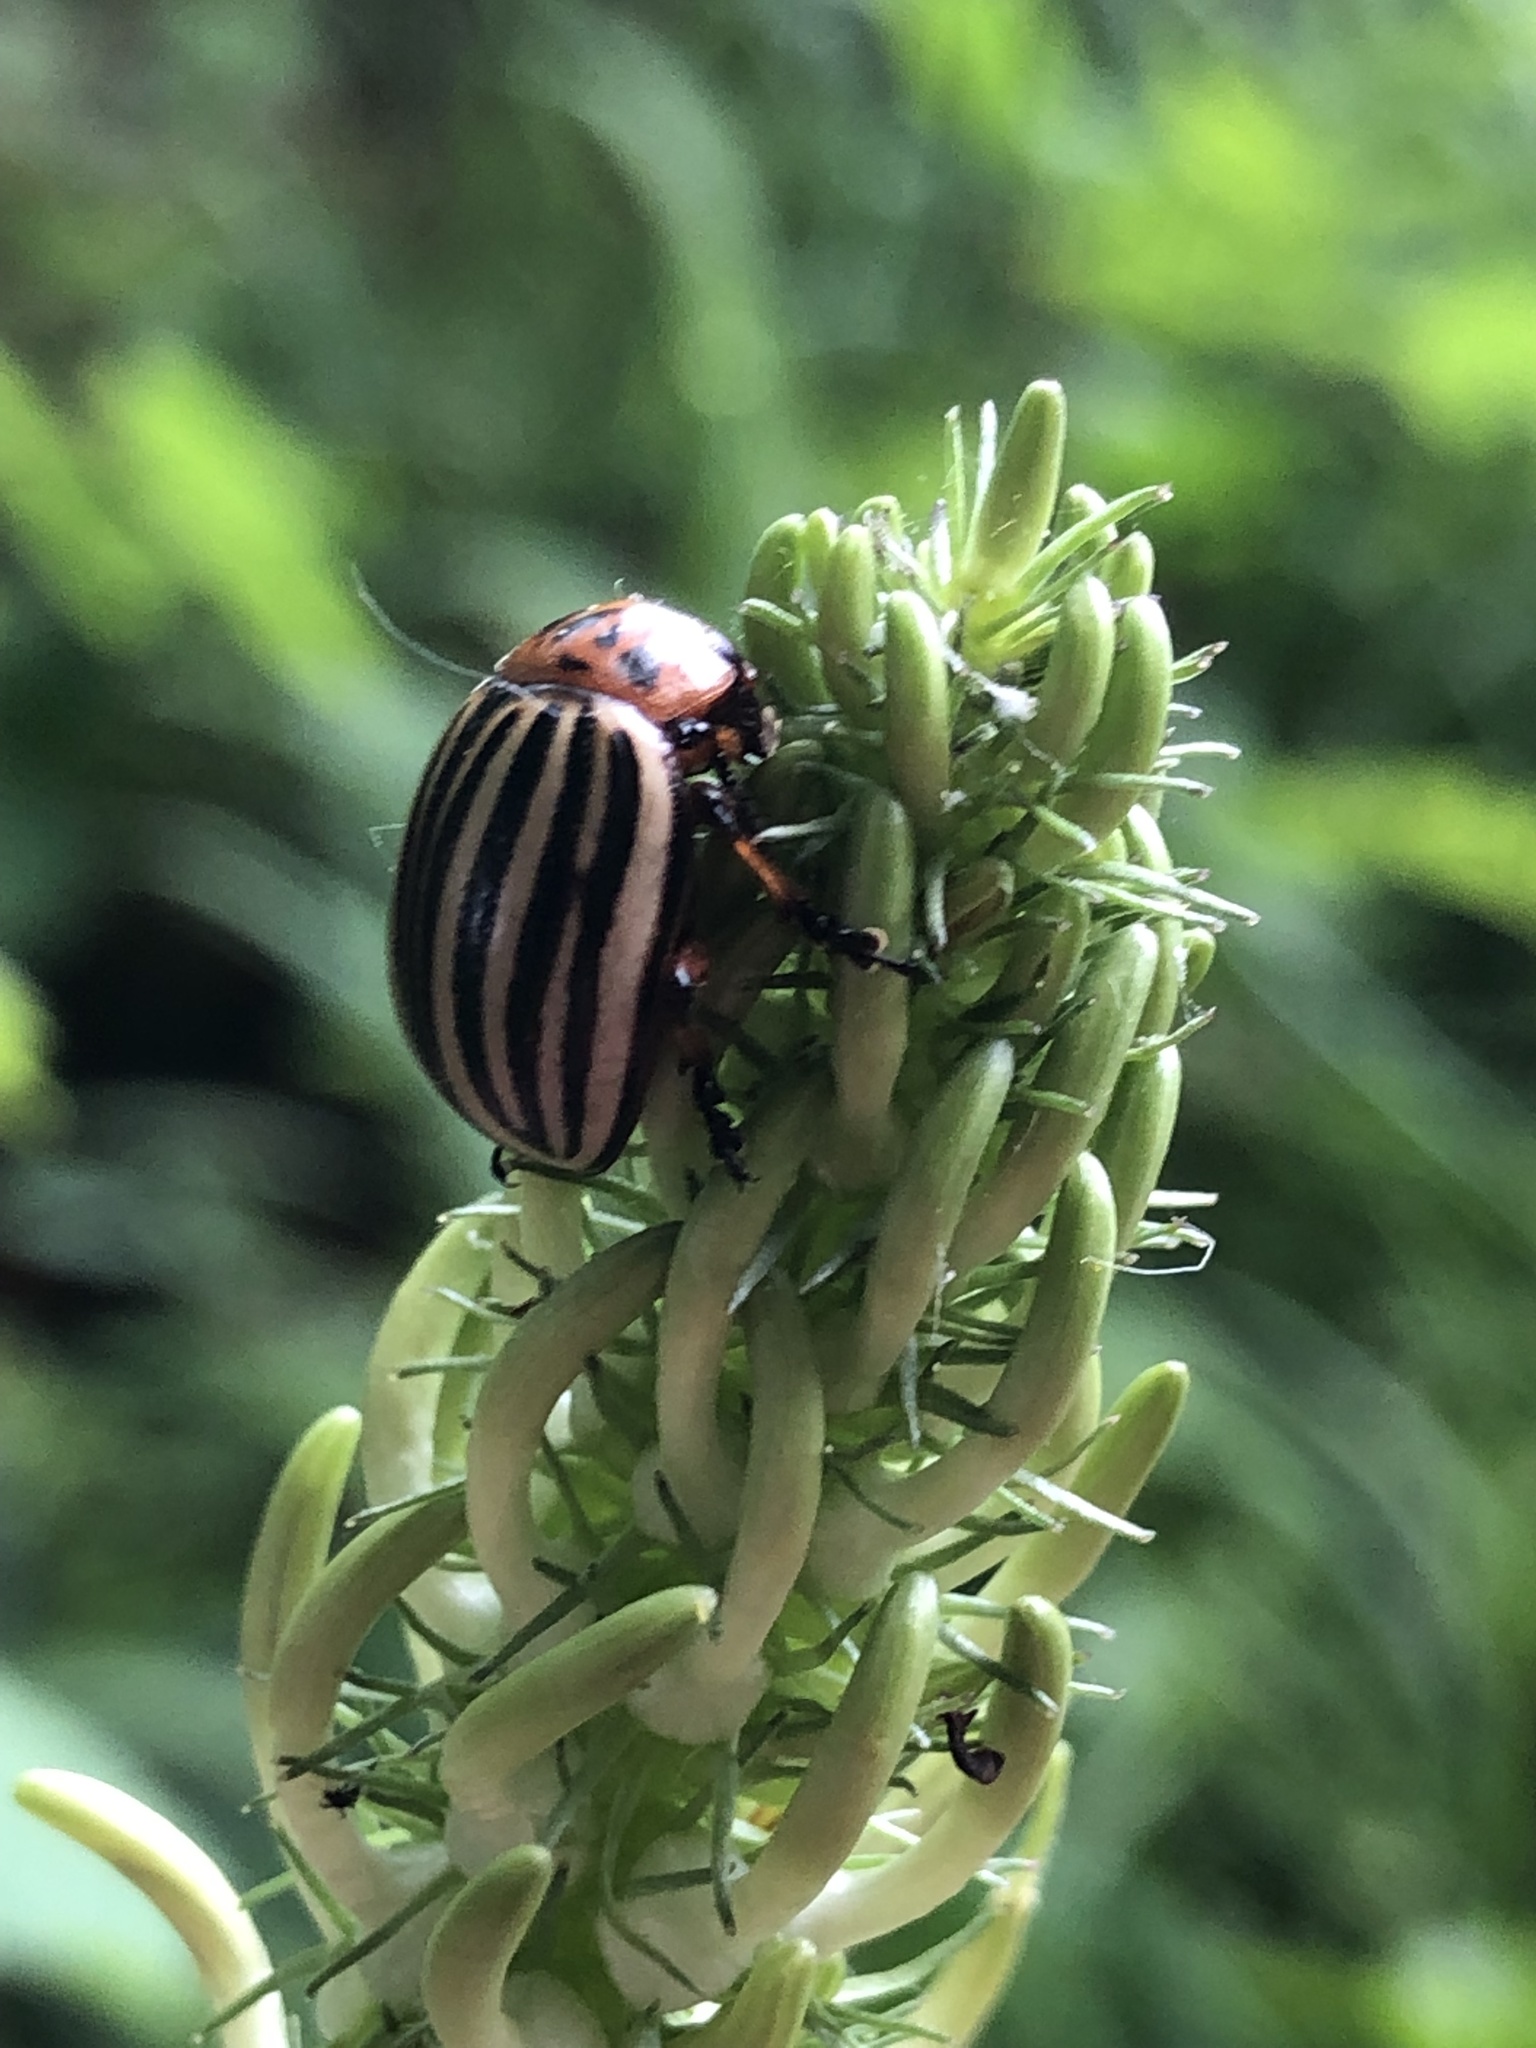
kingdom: Animalia
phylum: Arthropoda
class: Insecta
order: Coleoptera
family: Chrysomelidae
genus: Leptinotarsa
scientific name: Leptinotarsa decemlineata
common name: Colorado potato beetle
